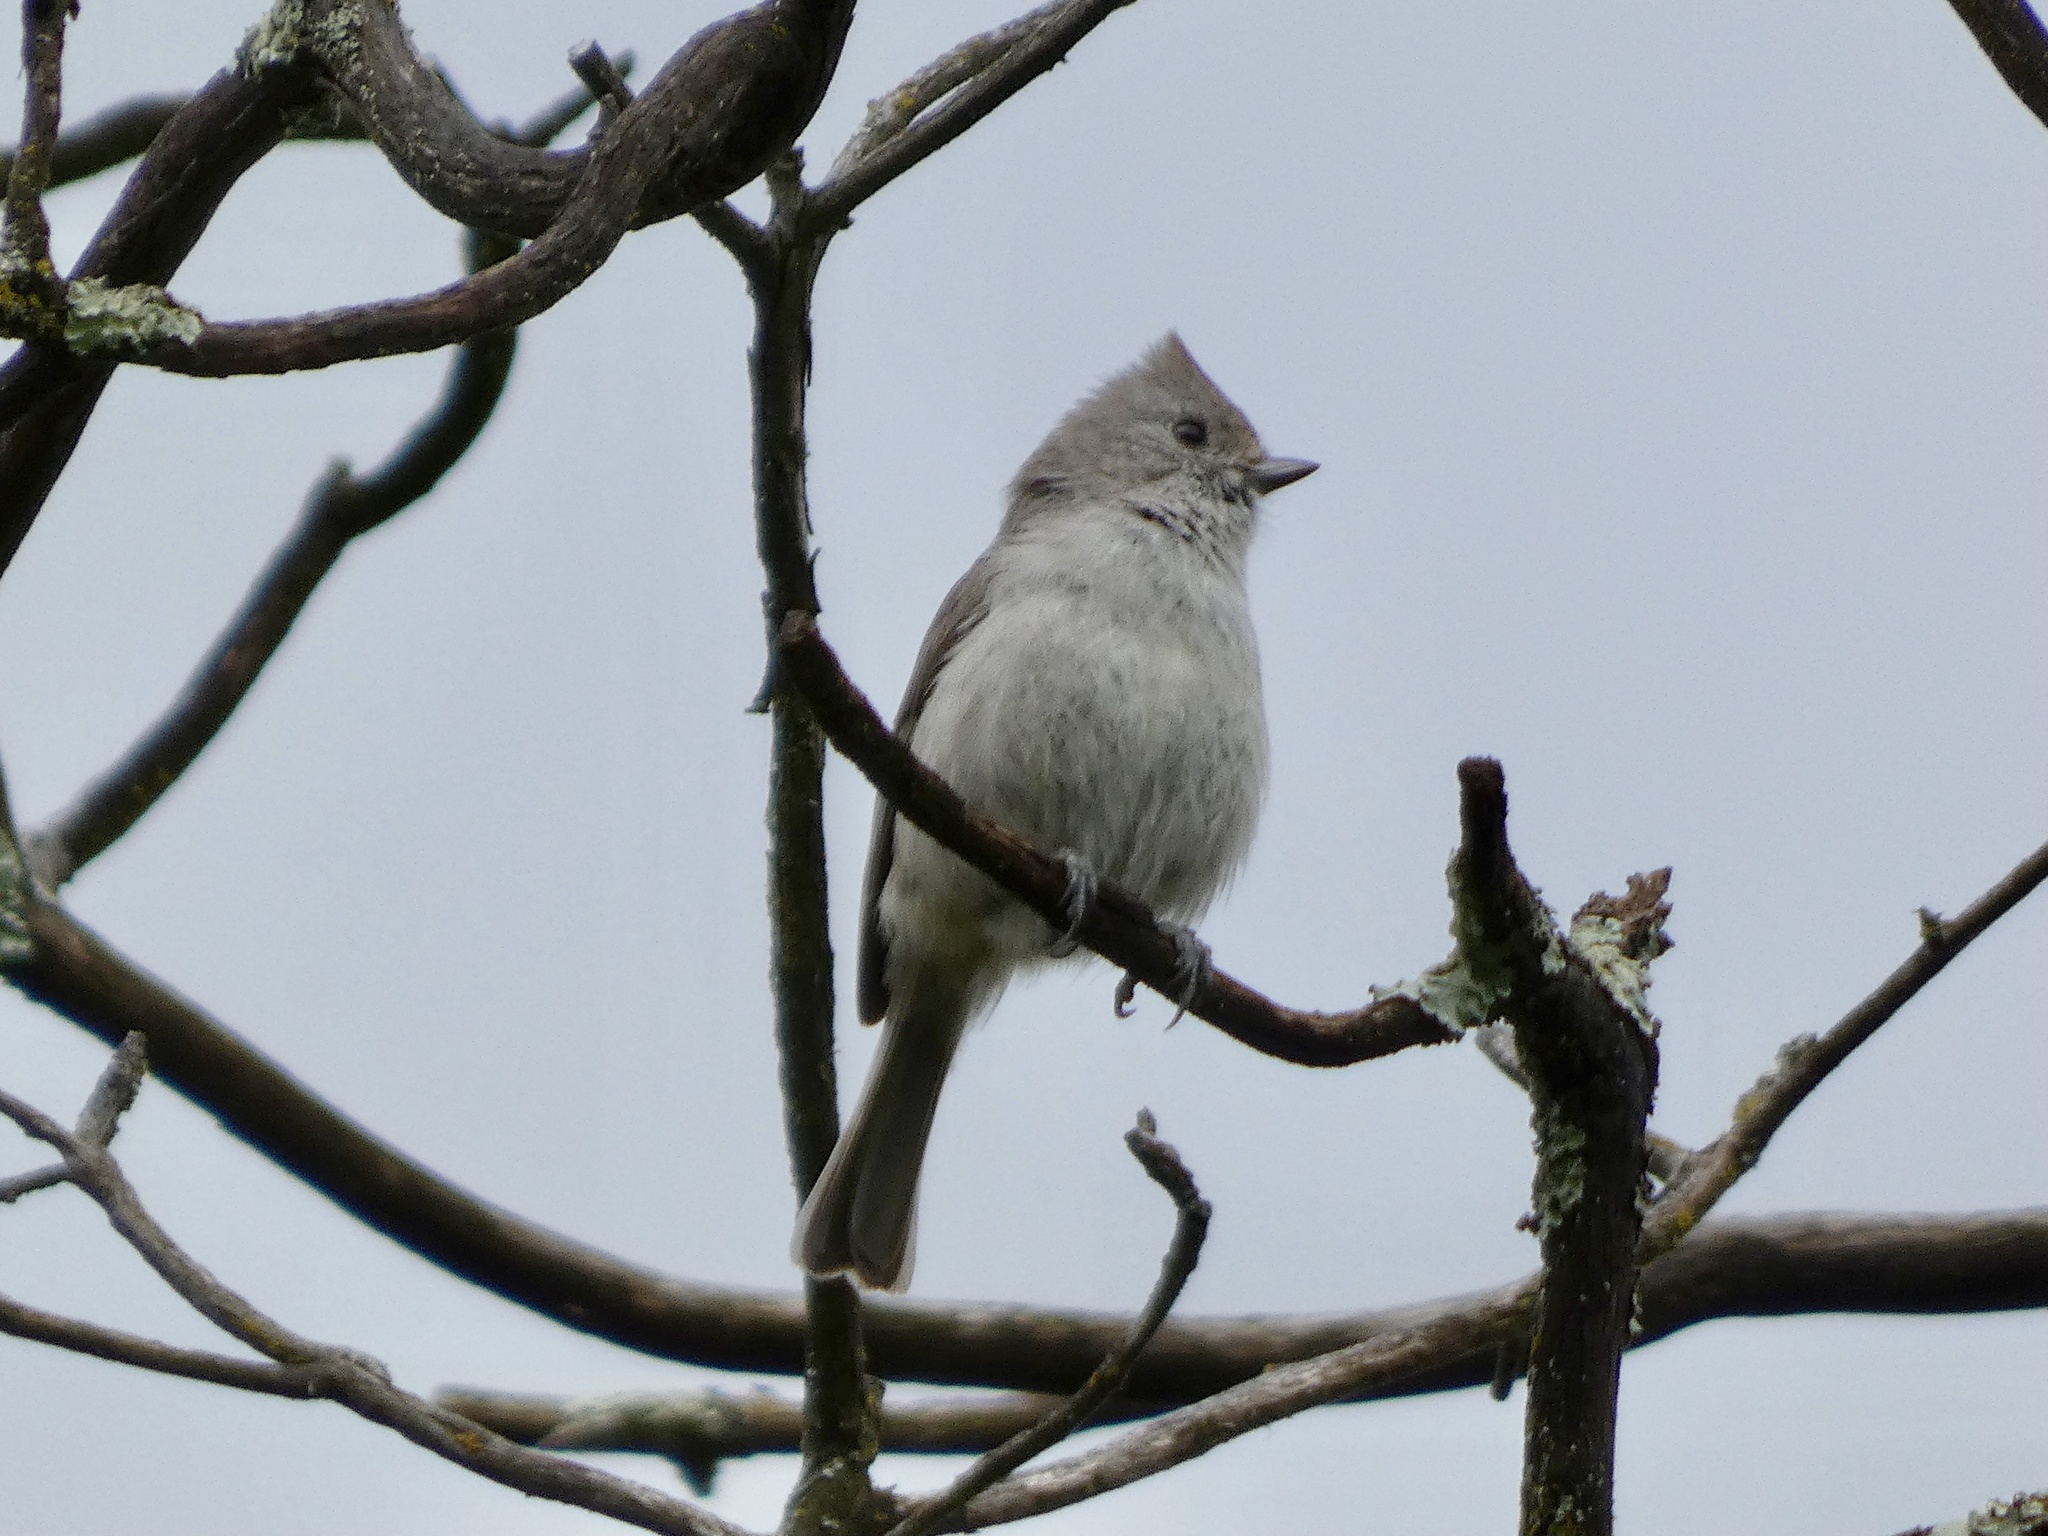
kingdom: Animalia
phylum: Chordata
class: Aves
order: Passeriformes
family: Paridae
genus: Baeolophus
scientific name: Baeolophus inornatus
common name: Oak titmouse
